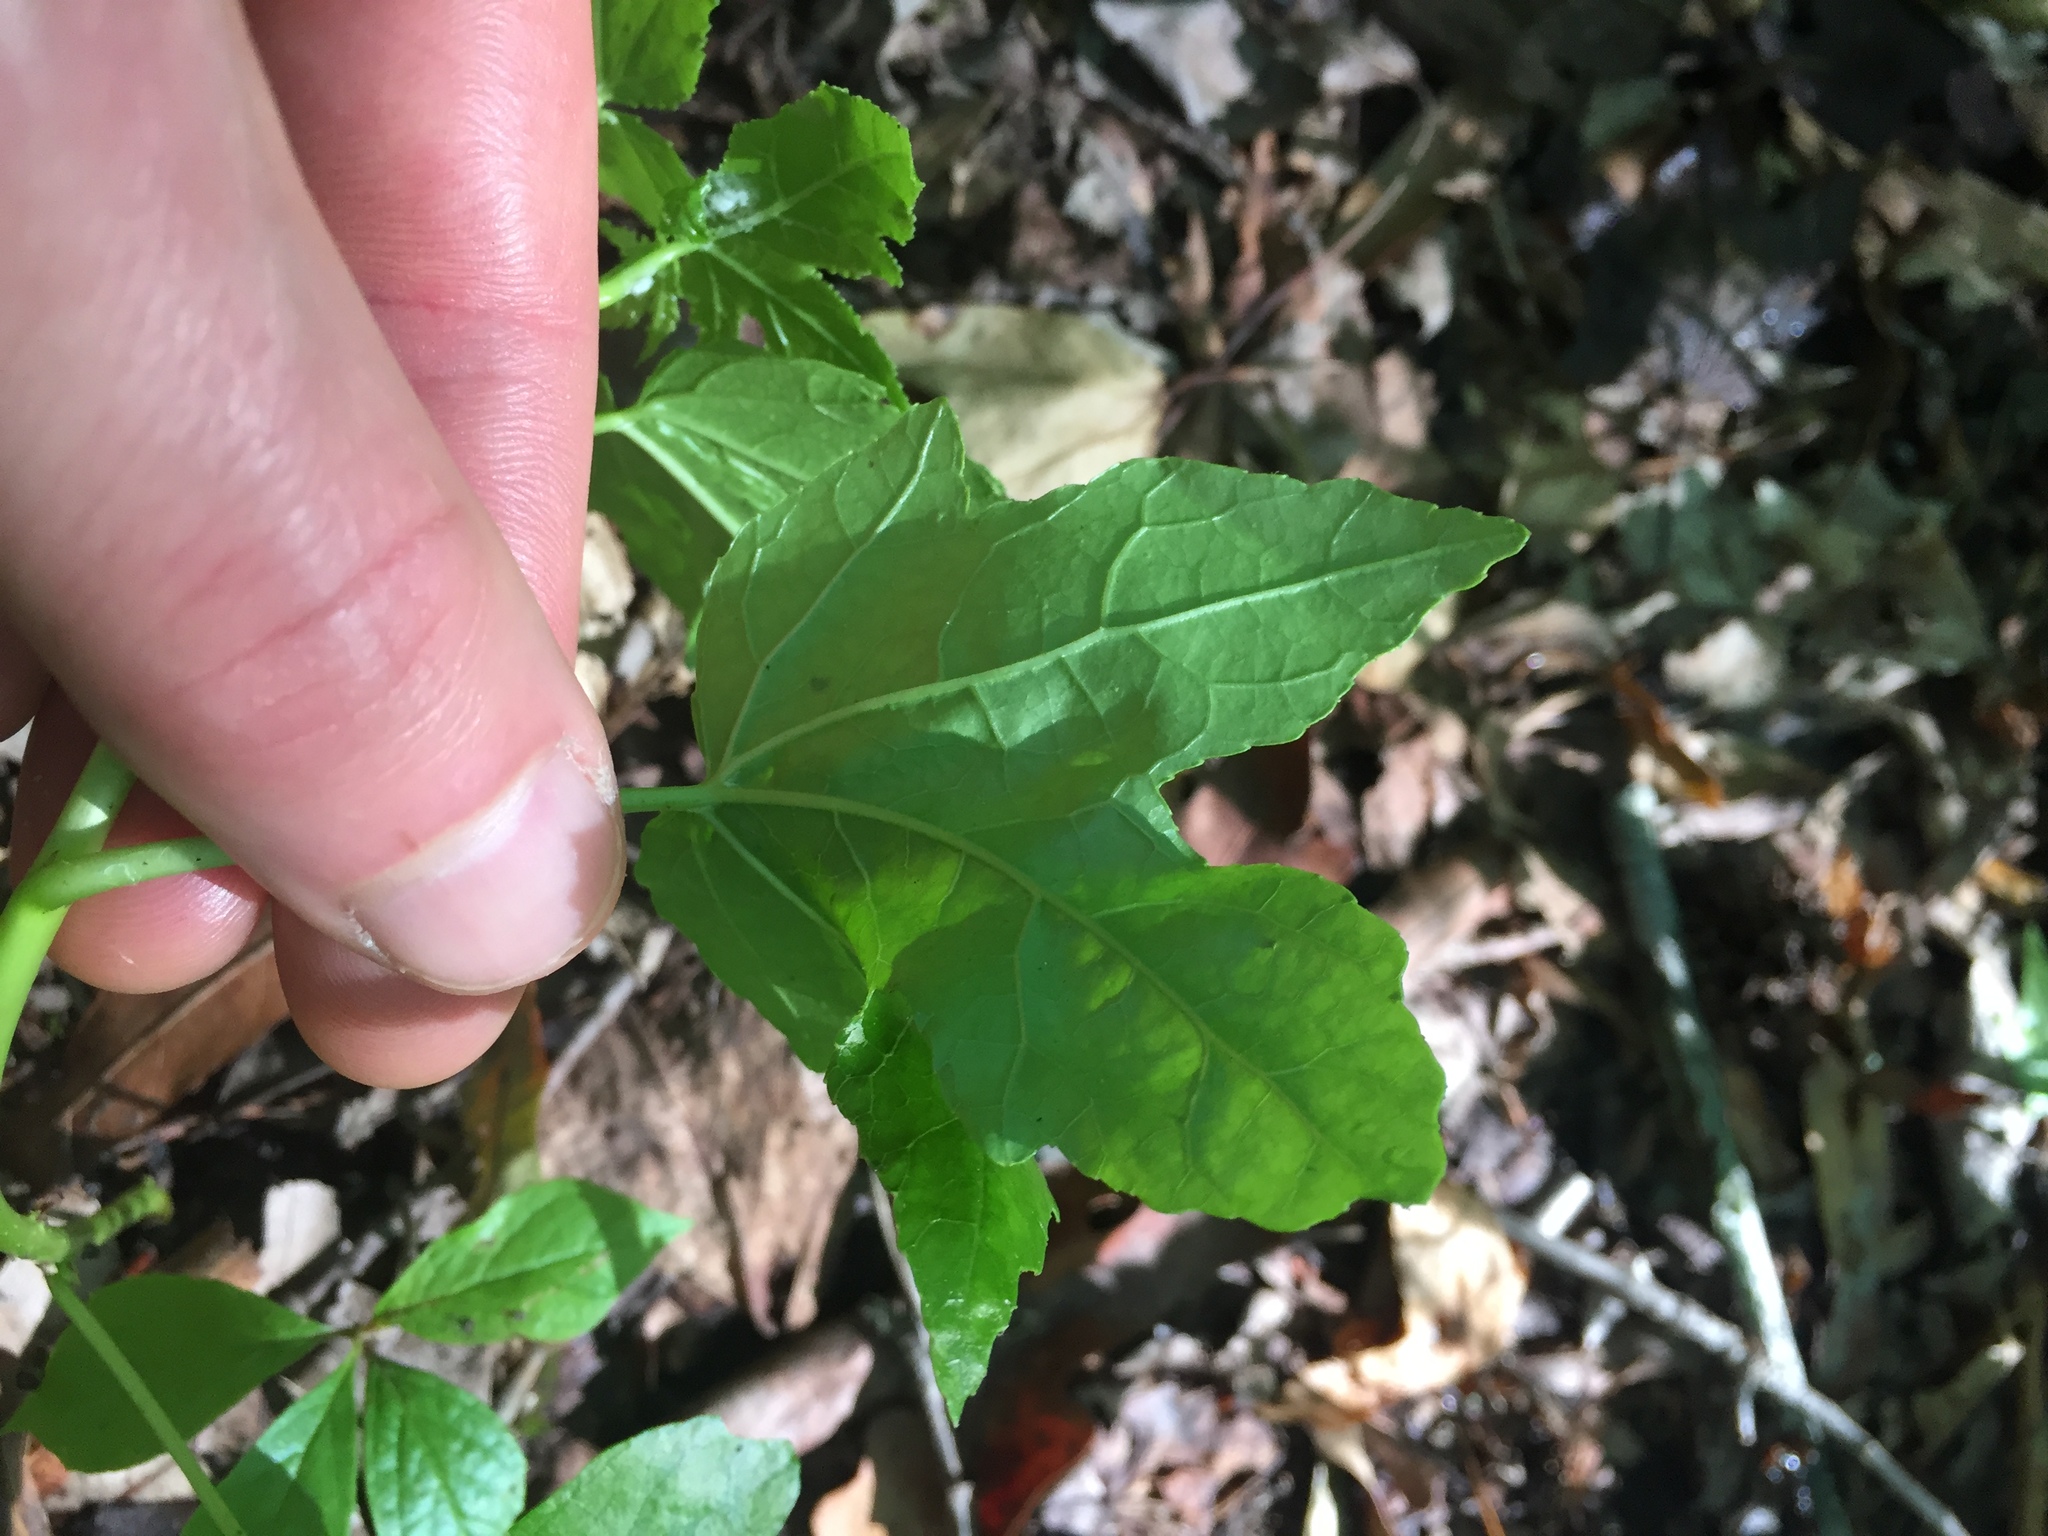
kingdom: Plantae
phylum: Tracheophyta
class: Magnoliopsida
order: Saxifragales
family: Altingiaceae
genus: Liquidambar
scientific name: Liquidambar styraciflua
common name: Sweet gum
